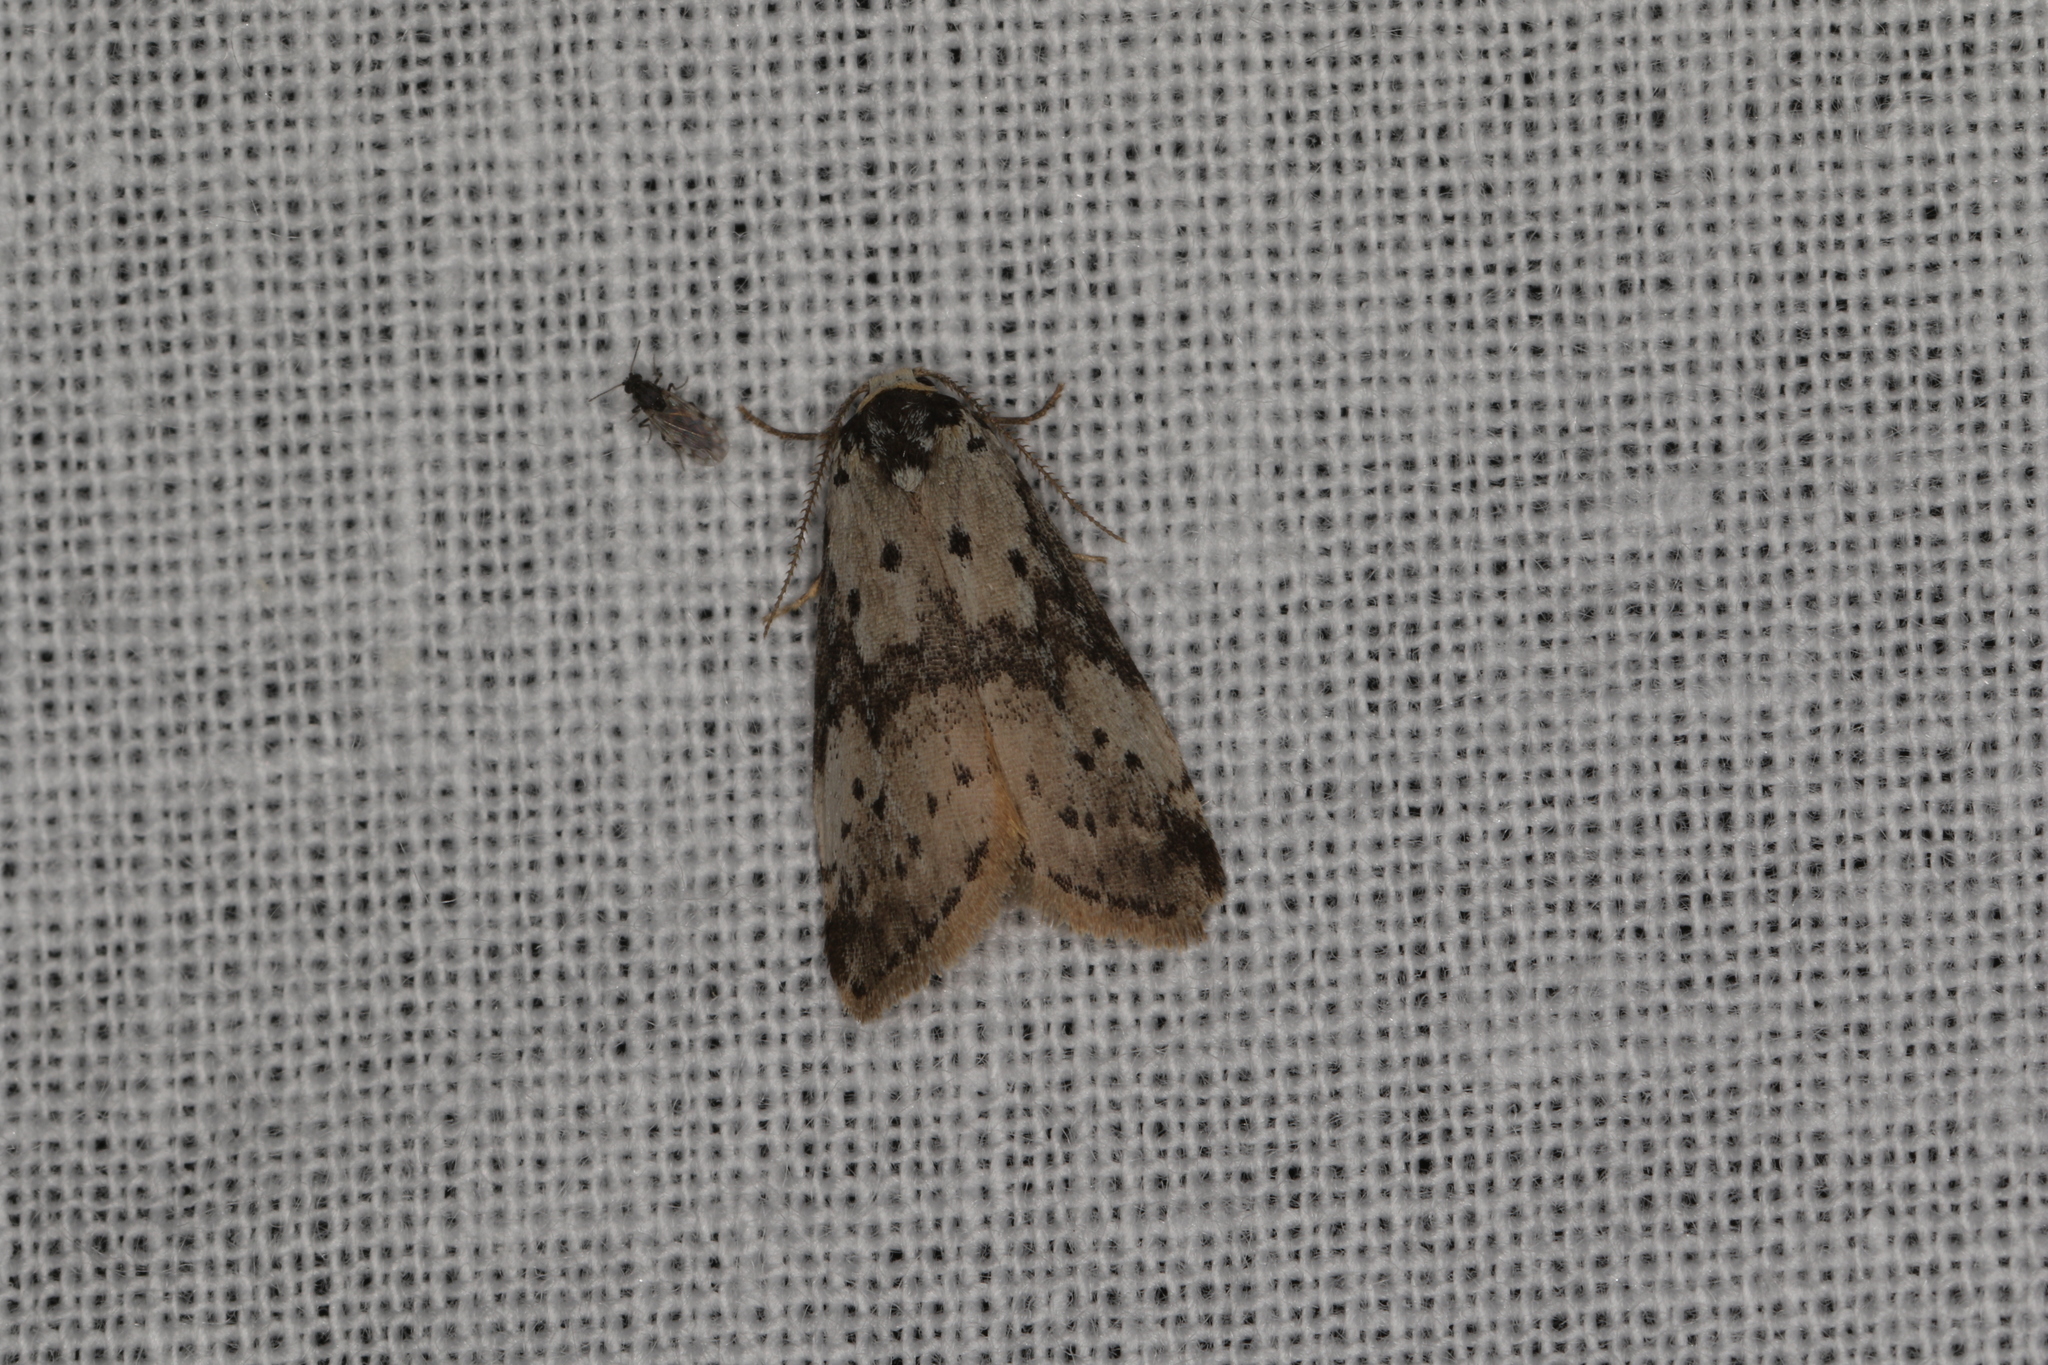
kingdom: Animalia
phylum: Arthropoda
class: Insecta
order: Lepidoptera
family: Erebidae
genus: Thallarcha
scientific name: Thallarcha lechrioleuca
